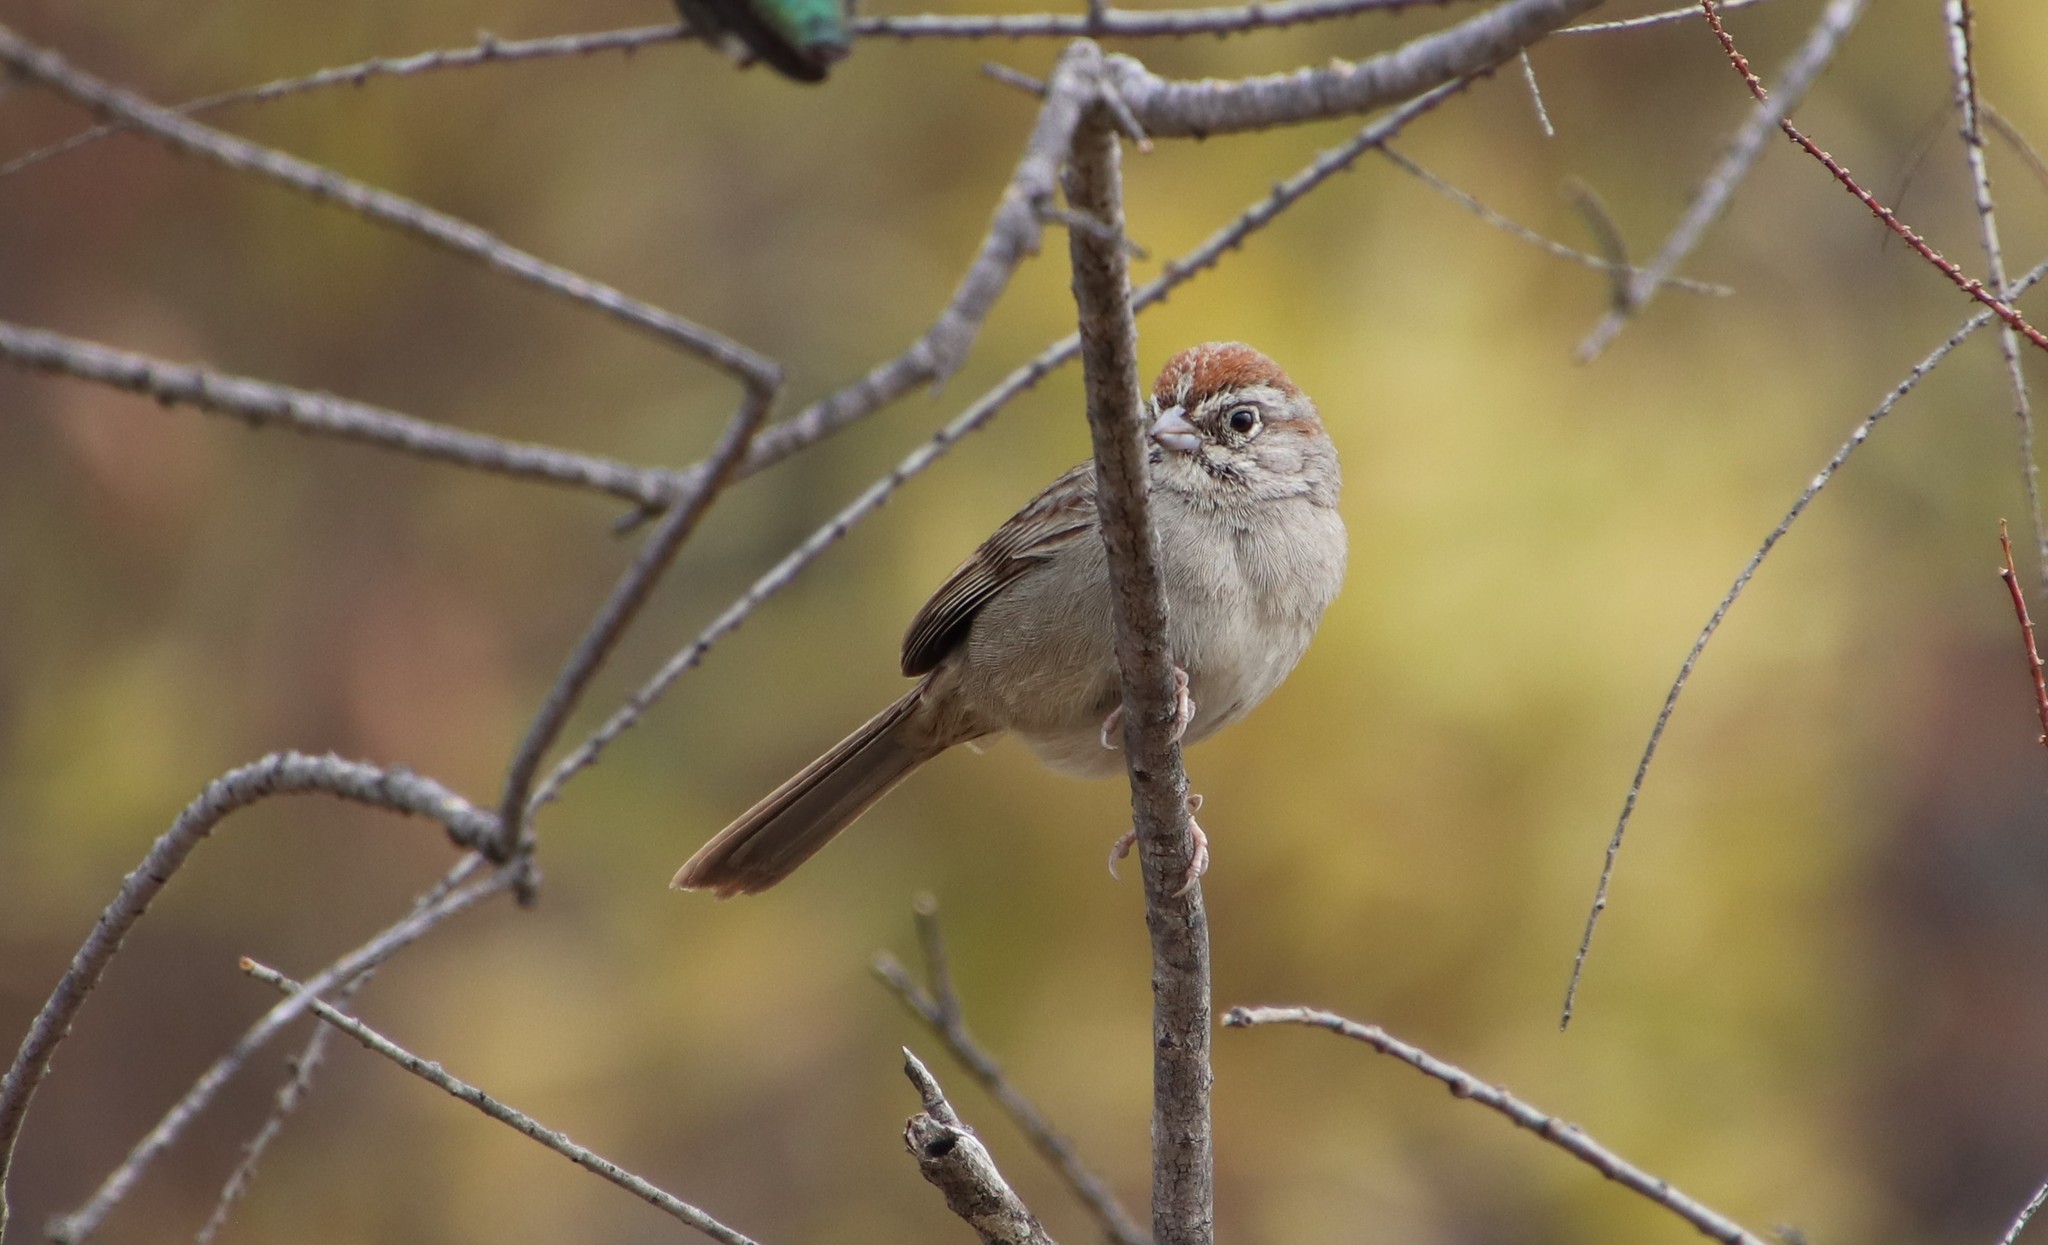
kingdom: Animalia
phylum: Chordata
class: Aves
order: Passeriformes
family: Passerellidae
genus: Aimophila
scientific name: Aimophila ruficeps
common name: Rufous-crowned sparrow
